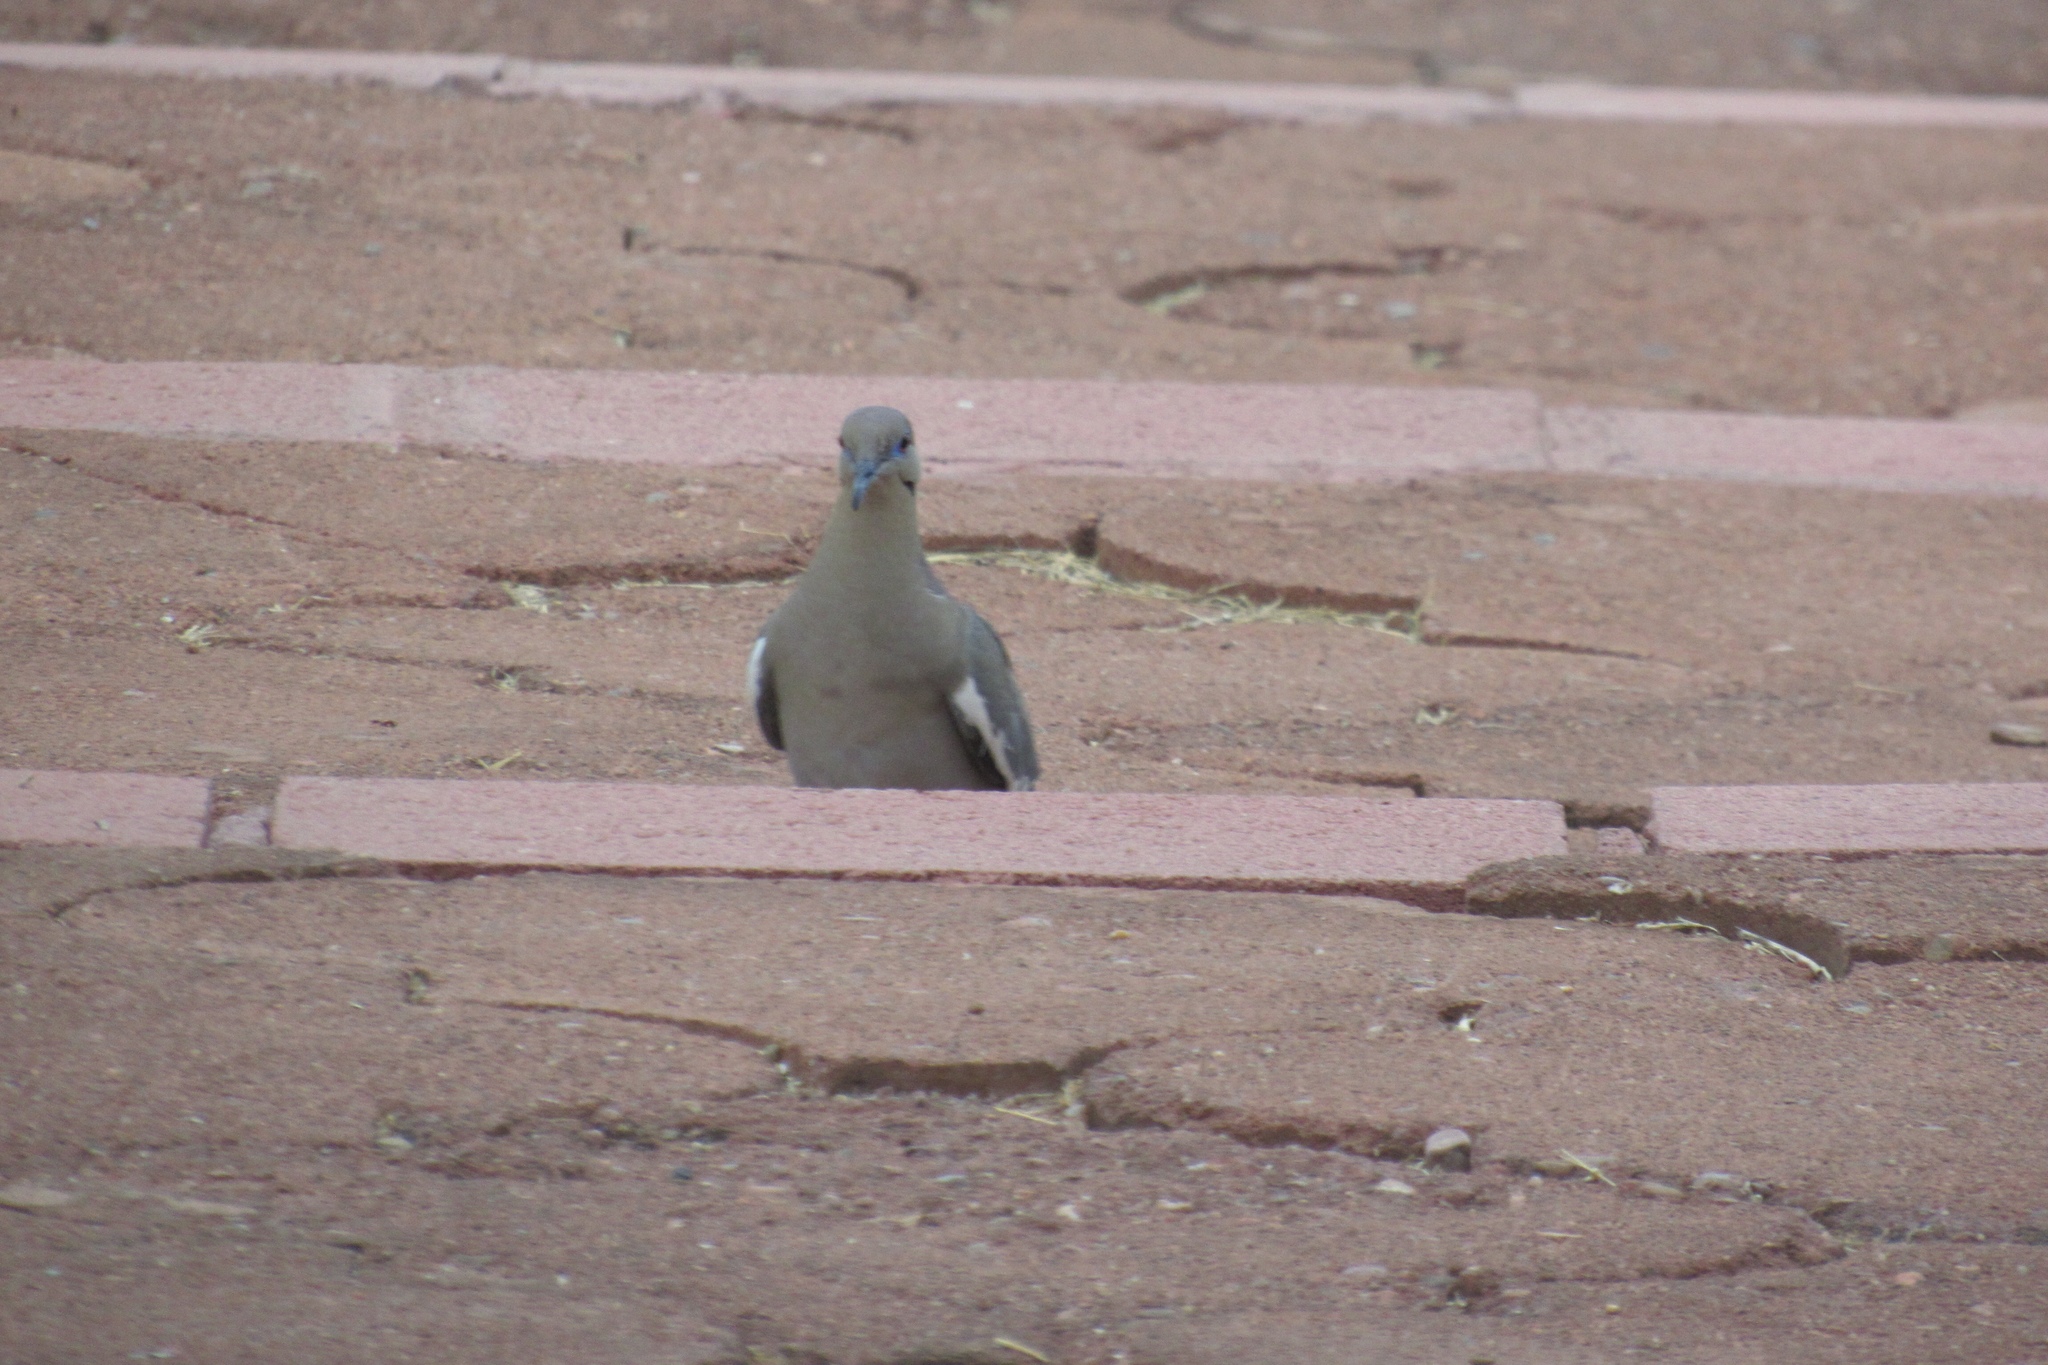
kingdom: Animalia
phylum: Chordata
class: Aves
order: Columbiformes
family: Columbidae
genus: Zenaida
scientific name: Zenaida asiatica
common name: White-winged dove
